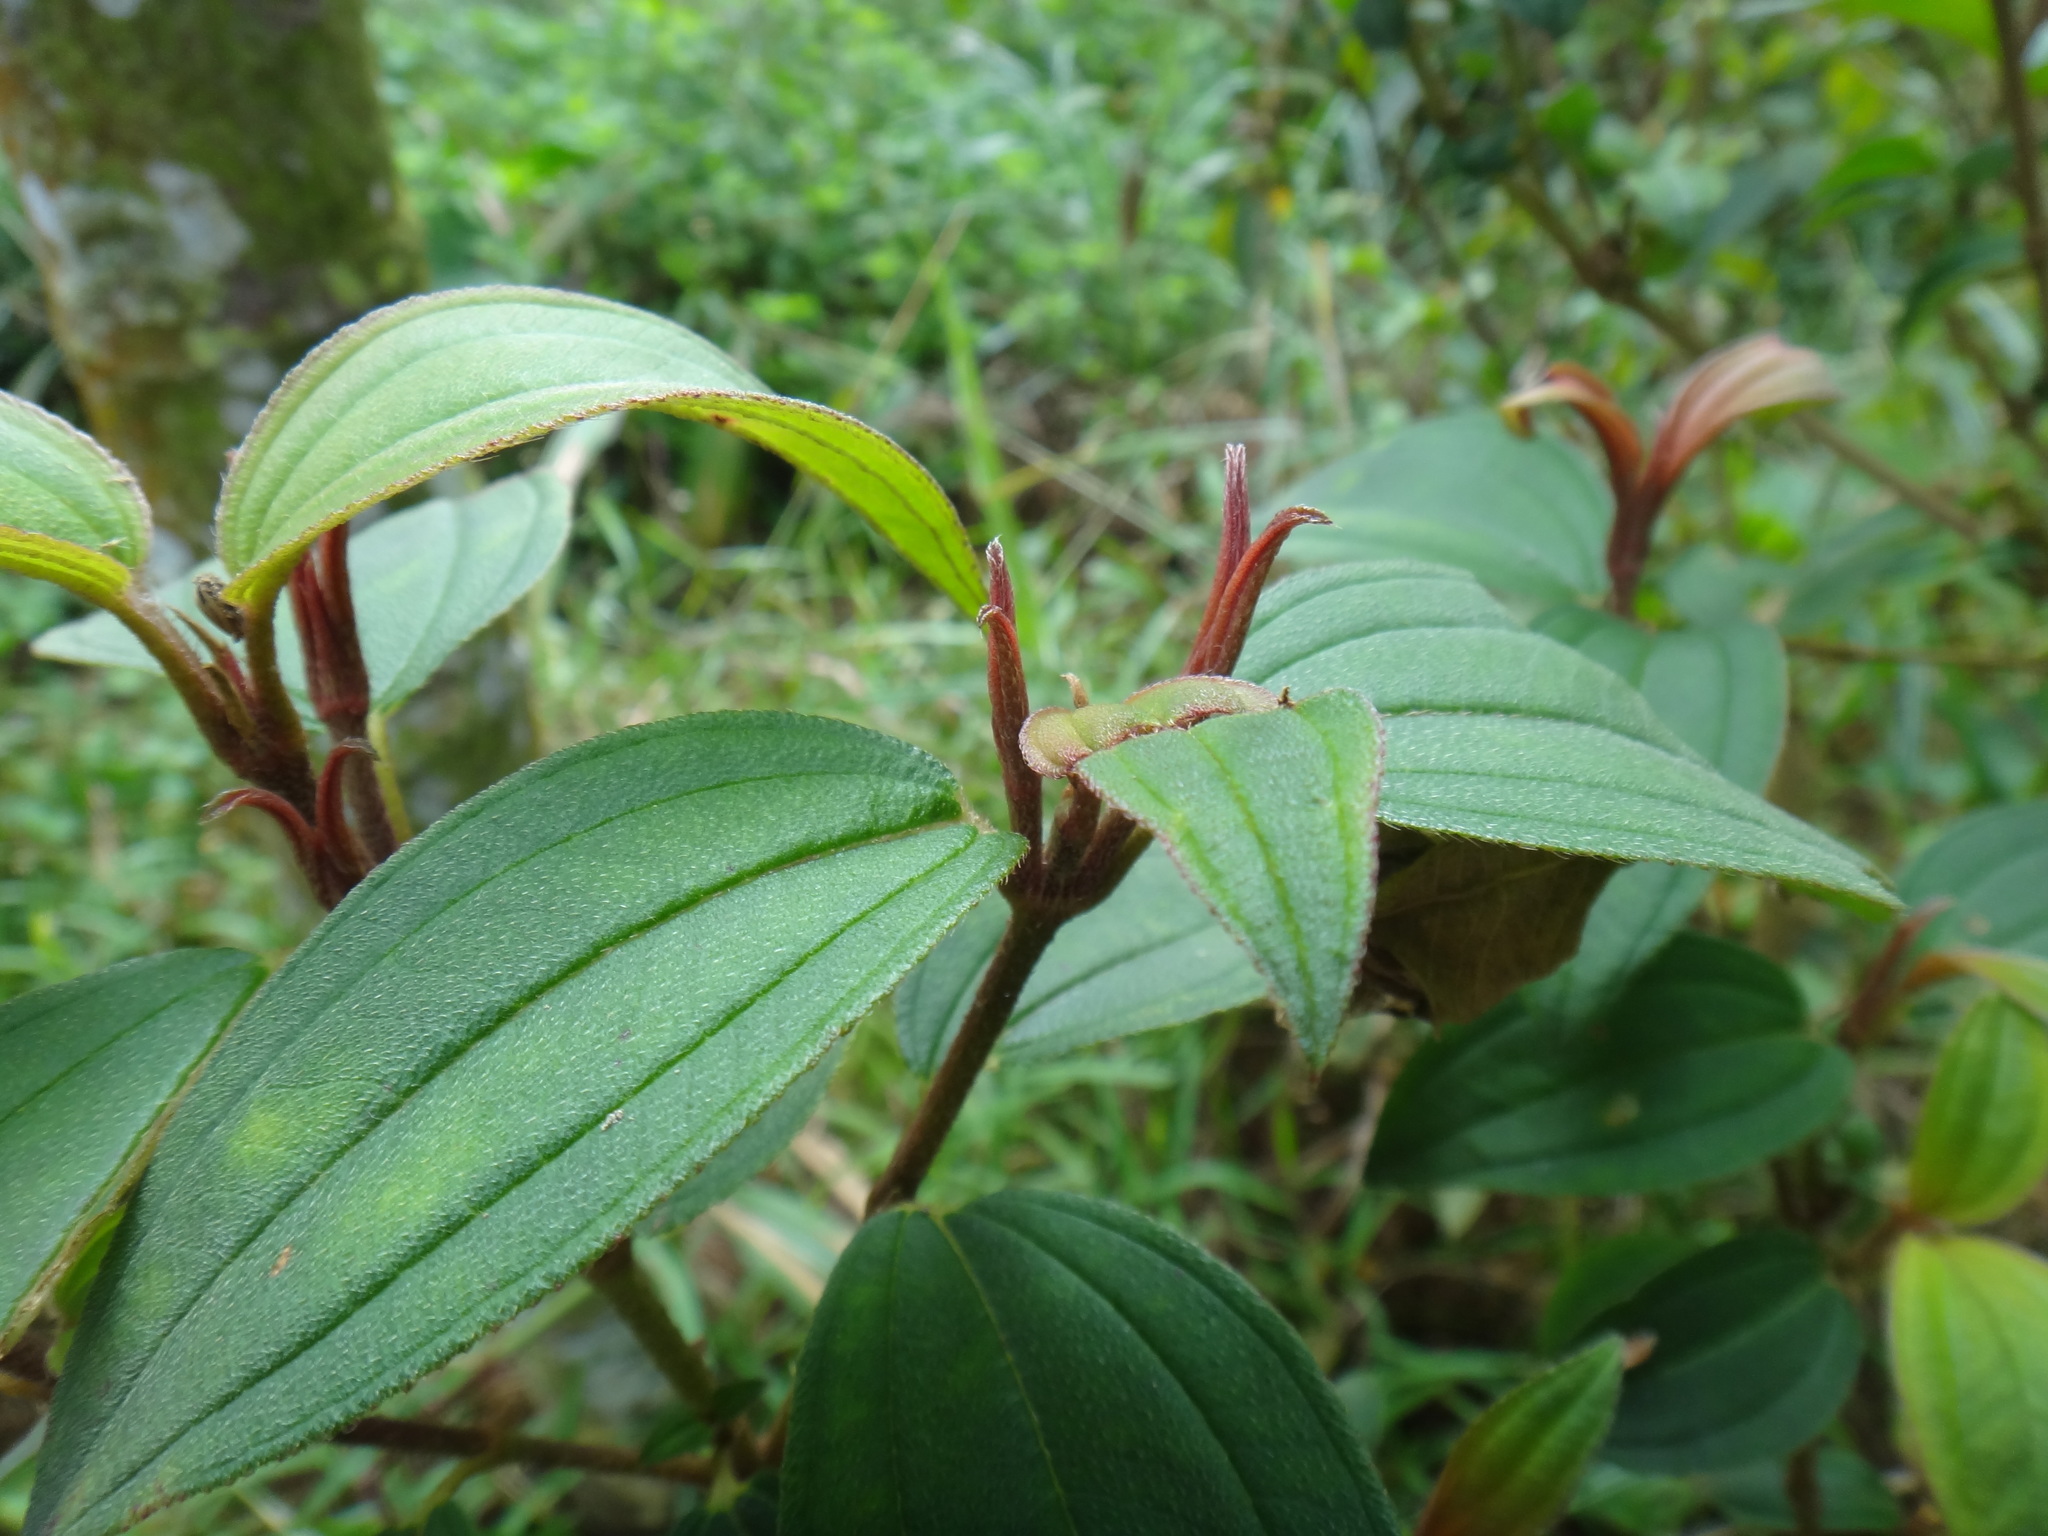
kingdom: Plantae
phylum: Tracheophyta
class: Magnoliopsida
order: Myrtales
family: Melastomataceae
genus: Melastoma
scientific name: Melastoma malabathricum
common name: Indian-rhododendron
